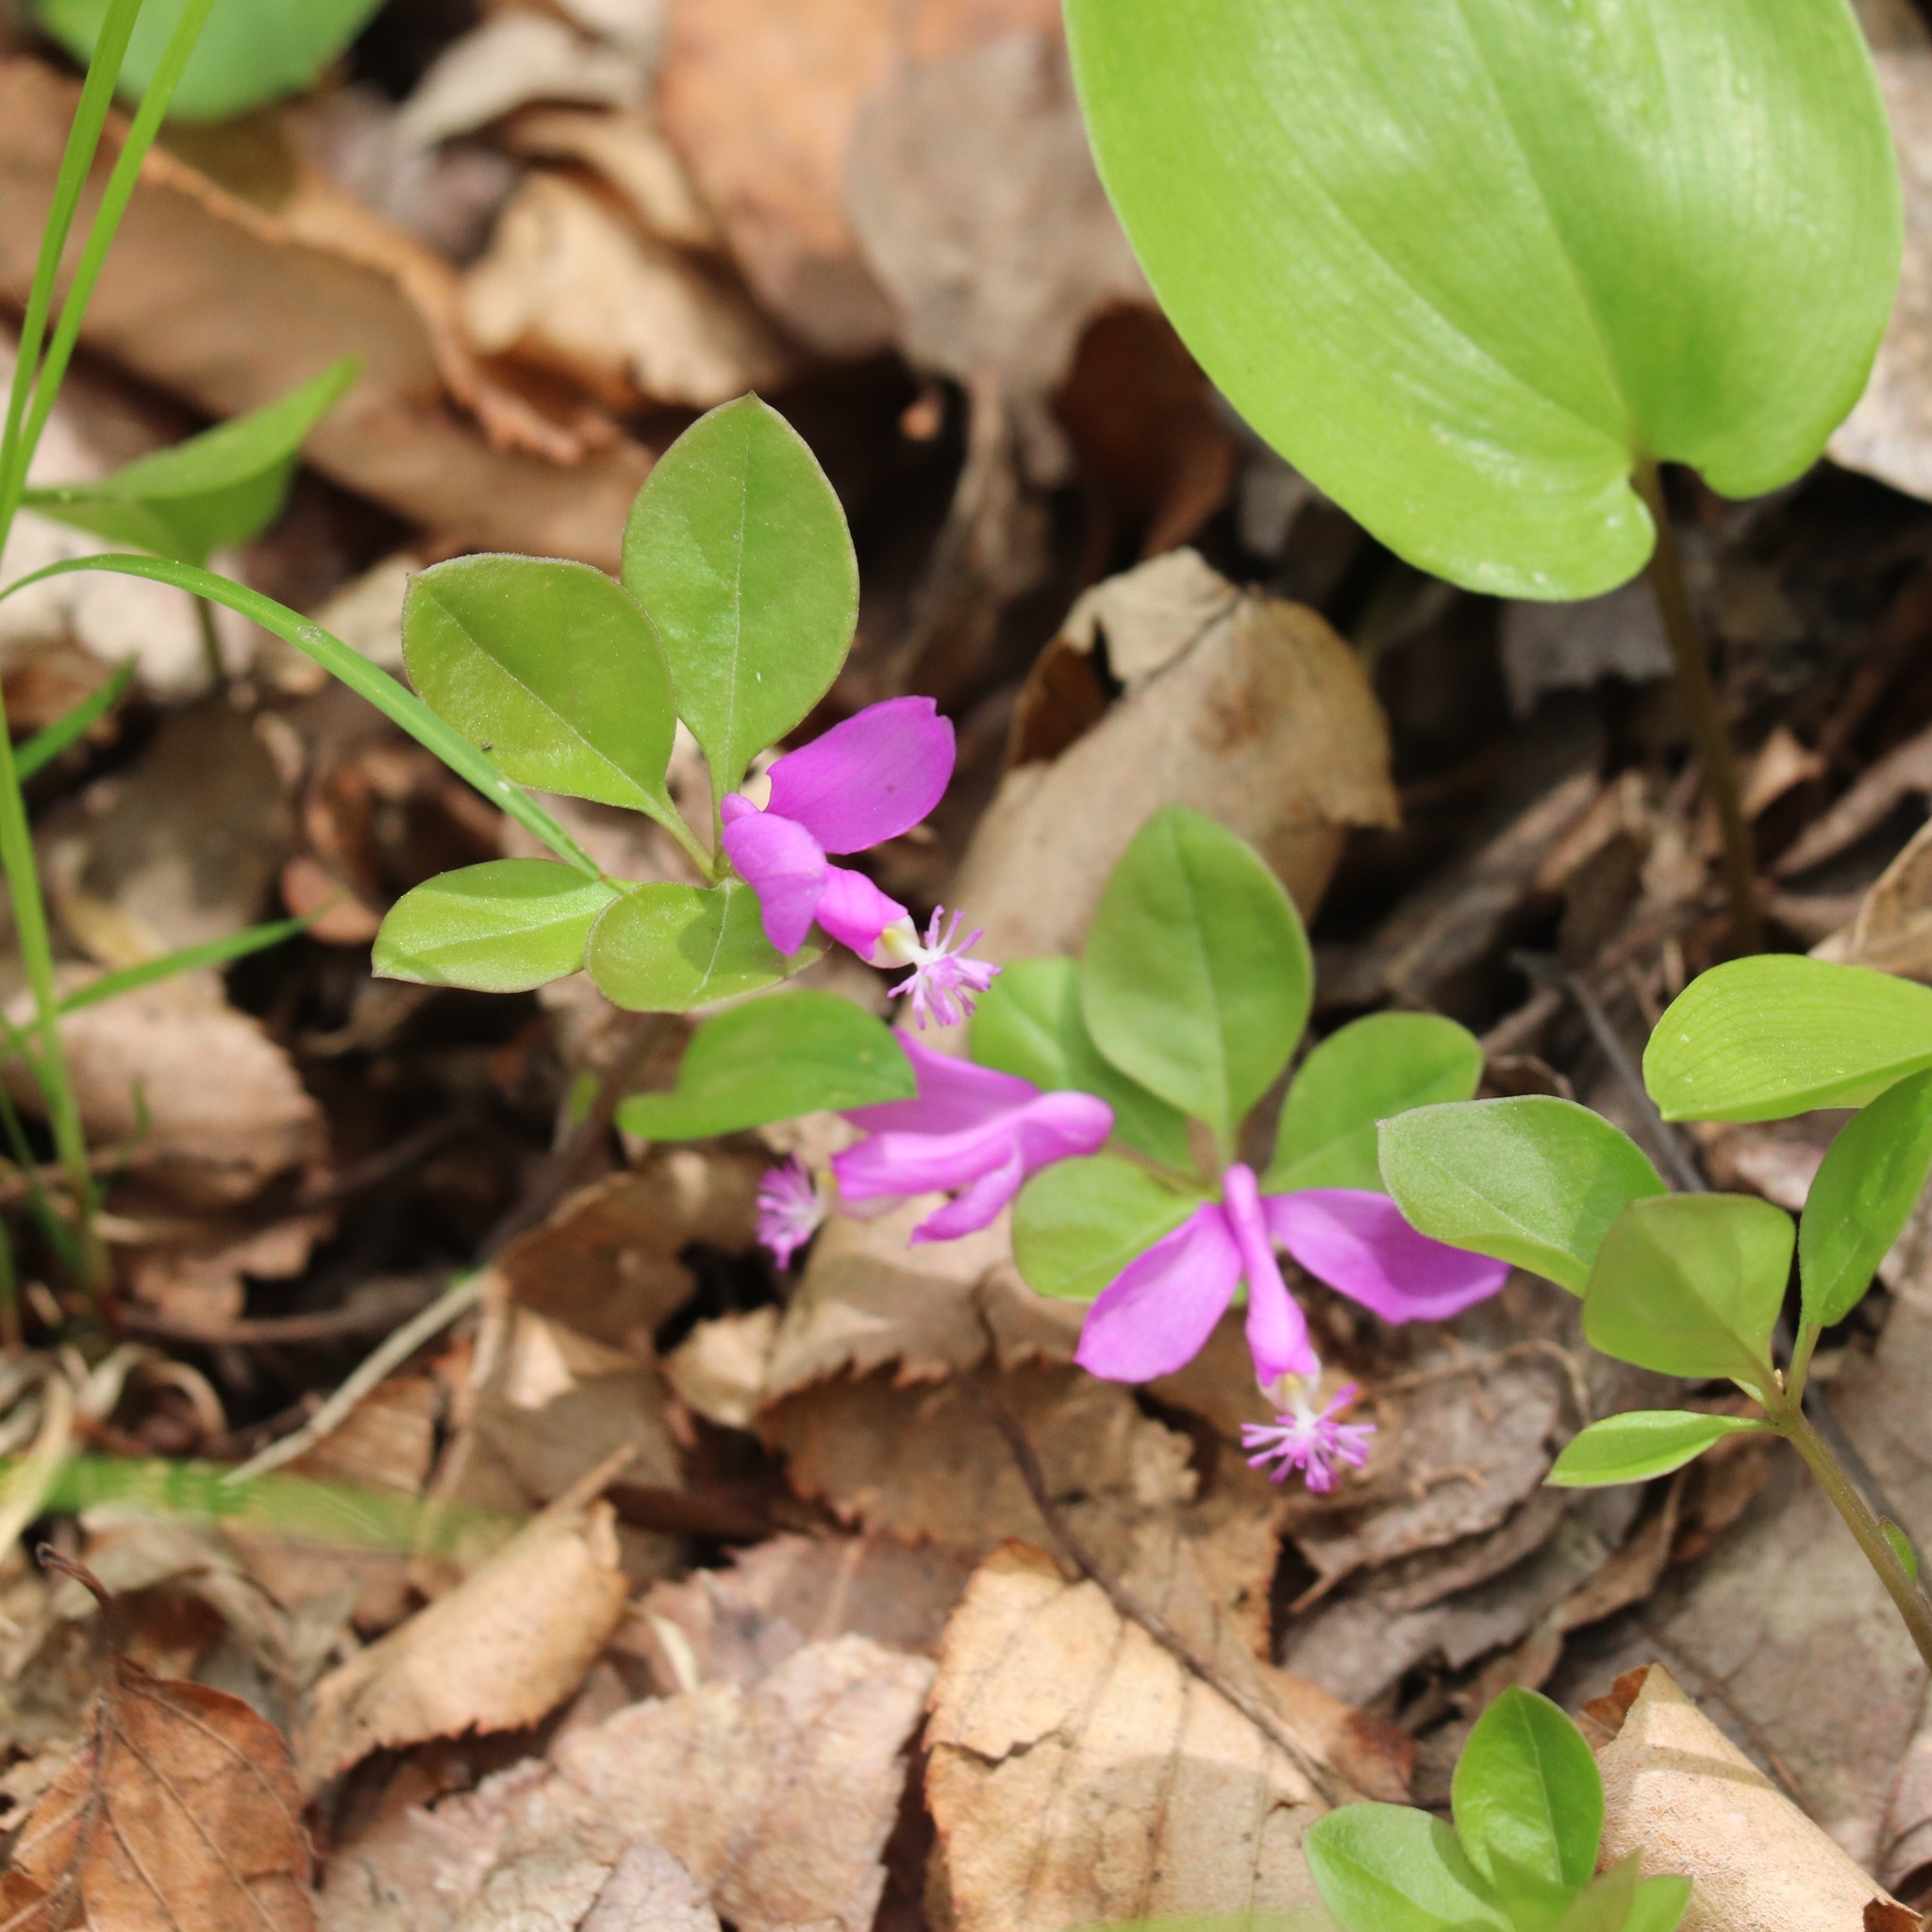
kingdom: Plantae
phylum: Tracheophyta
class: Magnoliopsida
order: Fabales
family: Polygalaceae
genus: Polygaloides
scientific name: Polygaloides paucifolia
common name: Bird-on-the-wing
